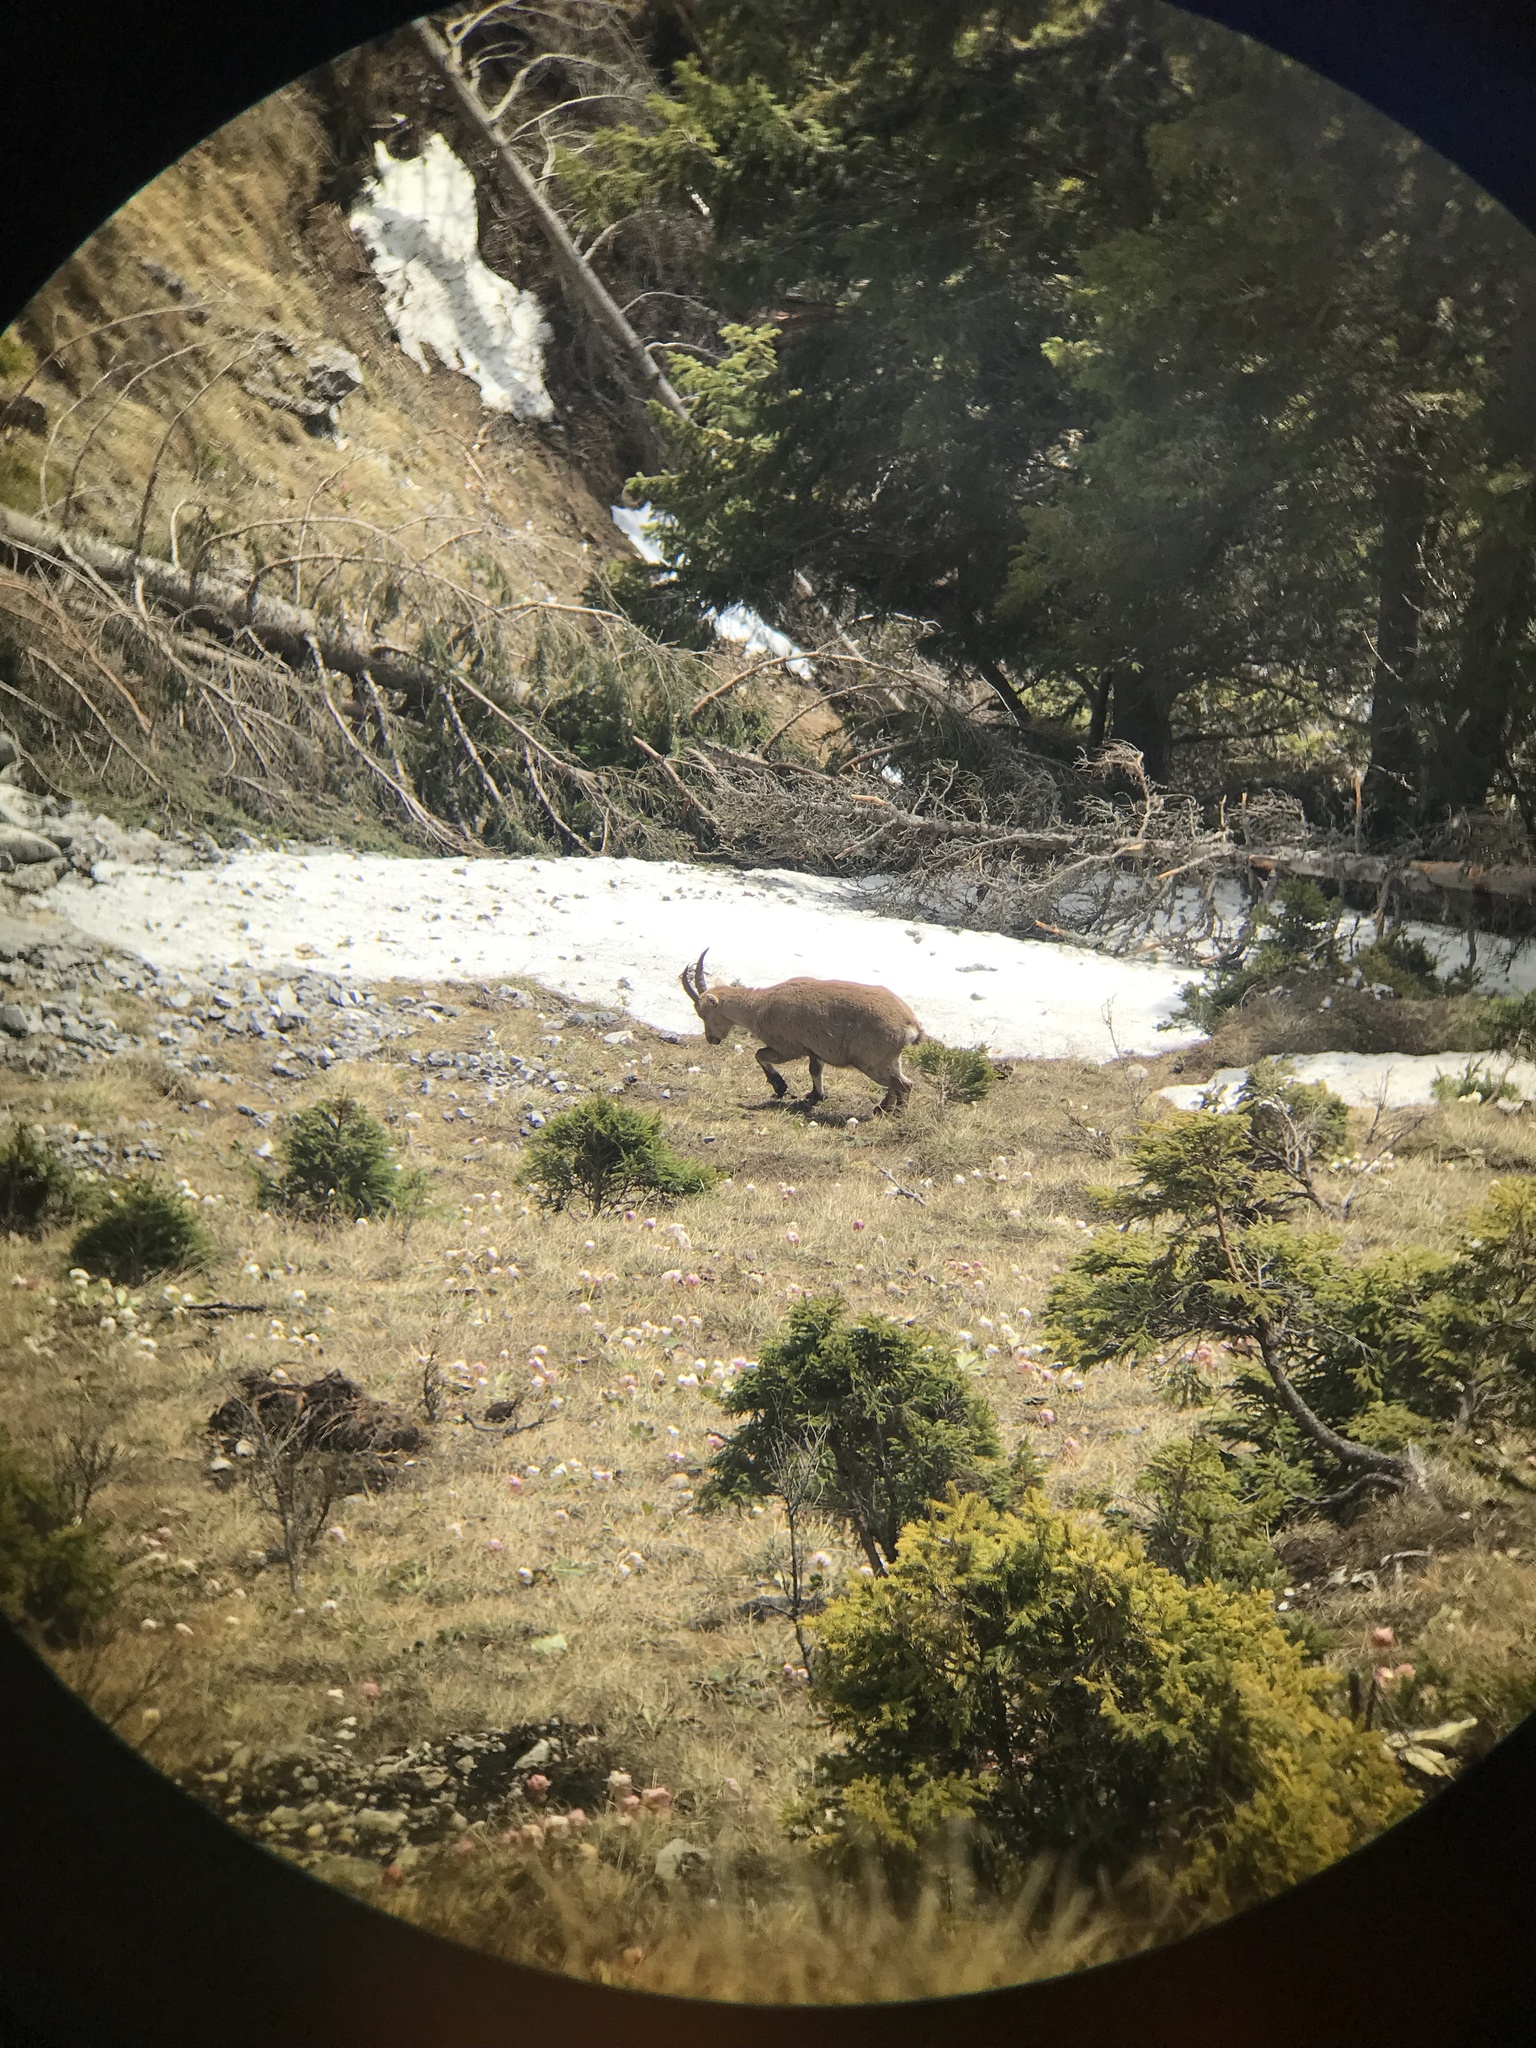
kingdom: Animalia
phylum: Chordata
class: Mammalia
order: Artiodactyla
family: Bovidae
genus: Capra
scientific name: Capra ibex
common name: Alpine ibex
